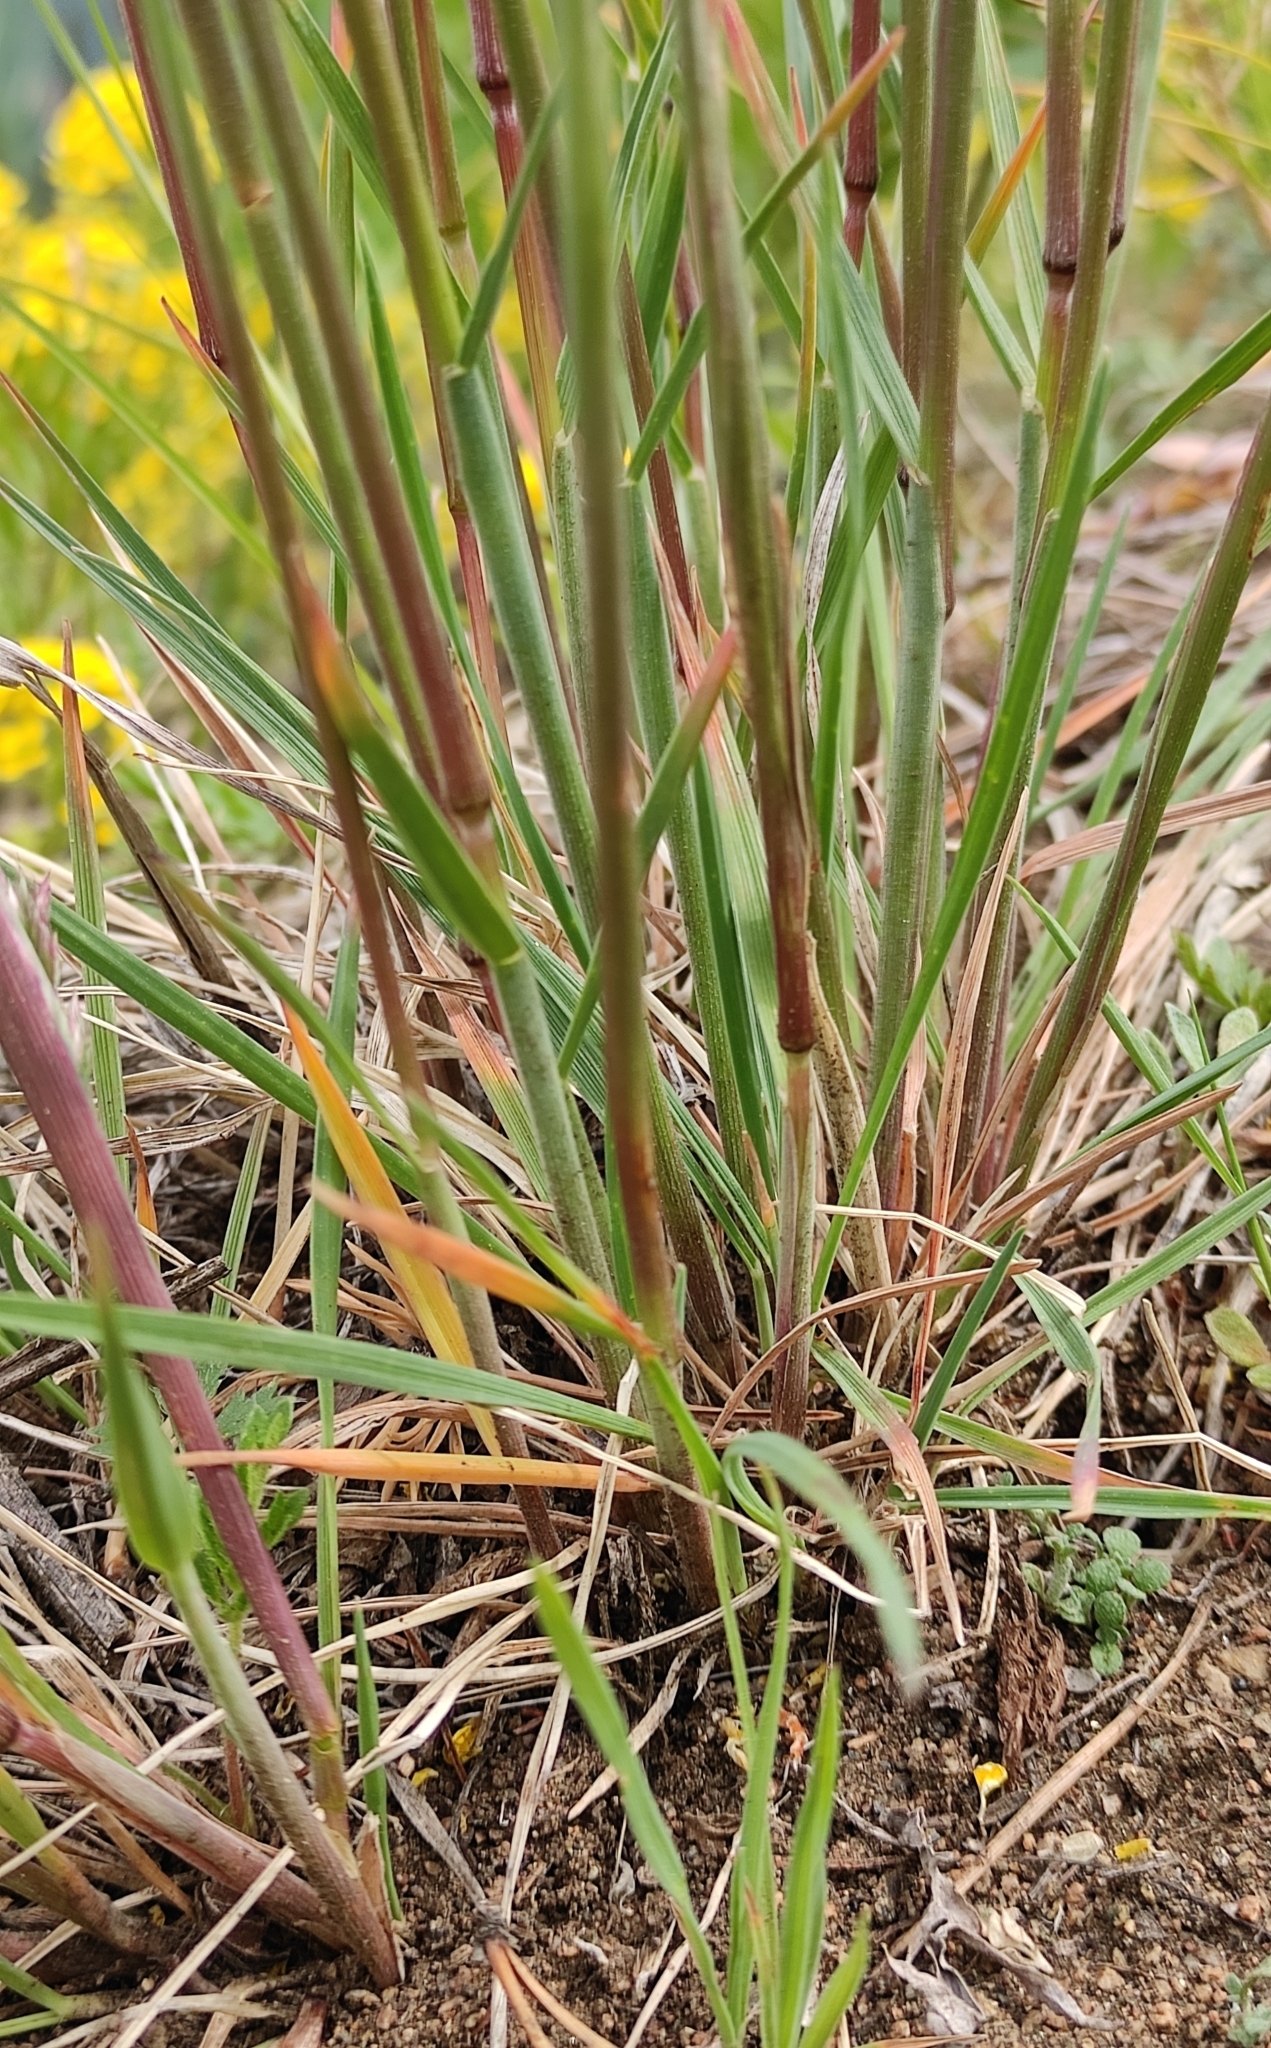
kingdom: Plantae
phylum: Tracheophyta
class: Liliopsida
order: Poales
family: Poaceae
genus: Koeleria
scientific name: Koeleria macrantha
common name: Crested hair-grass
